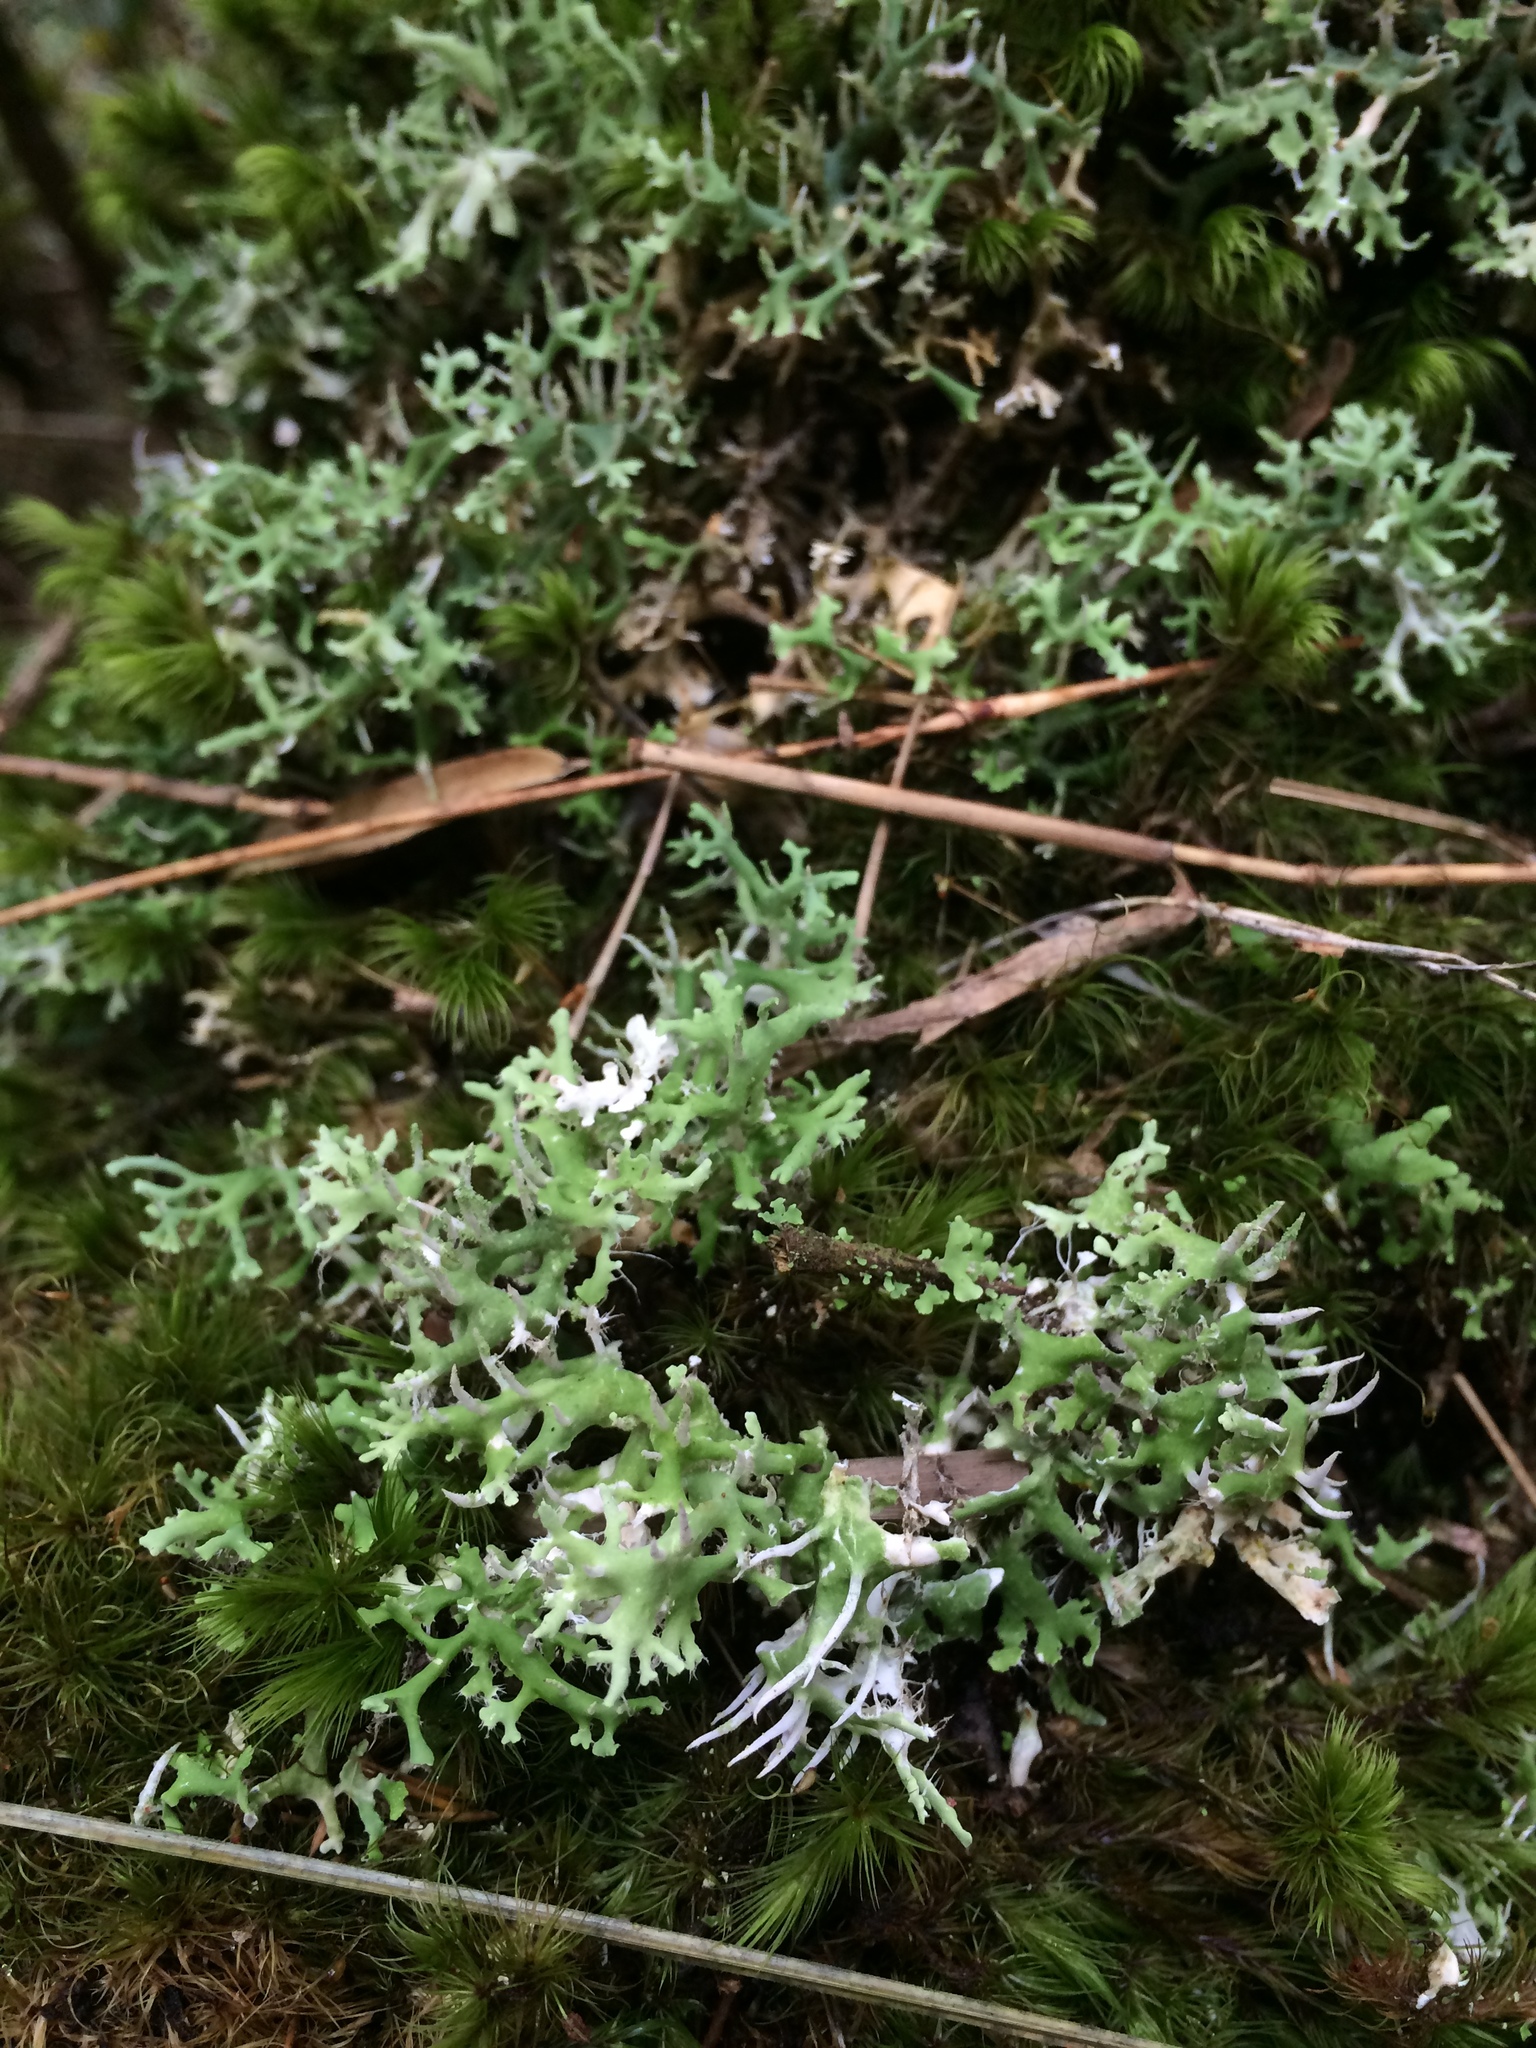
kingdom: Fungi
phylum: Ascomycota
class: Lecanoromycetes
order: Lecanorales
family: Cladoniaceae
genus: Cladonia
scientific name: Cladonia ceratophylla
